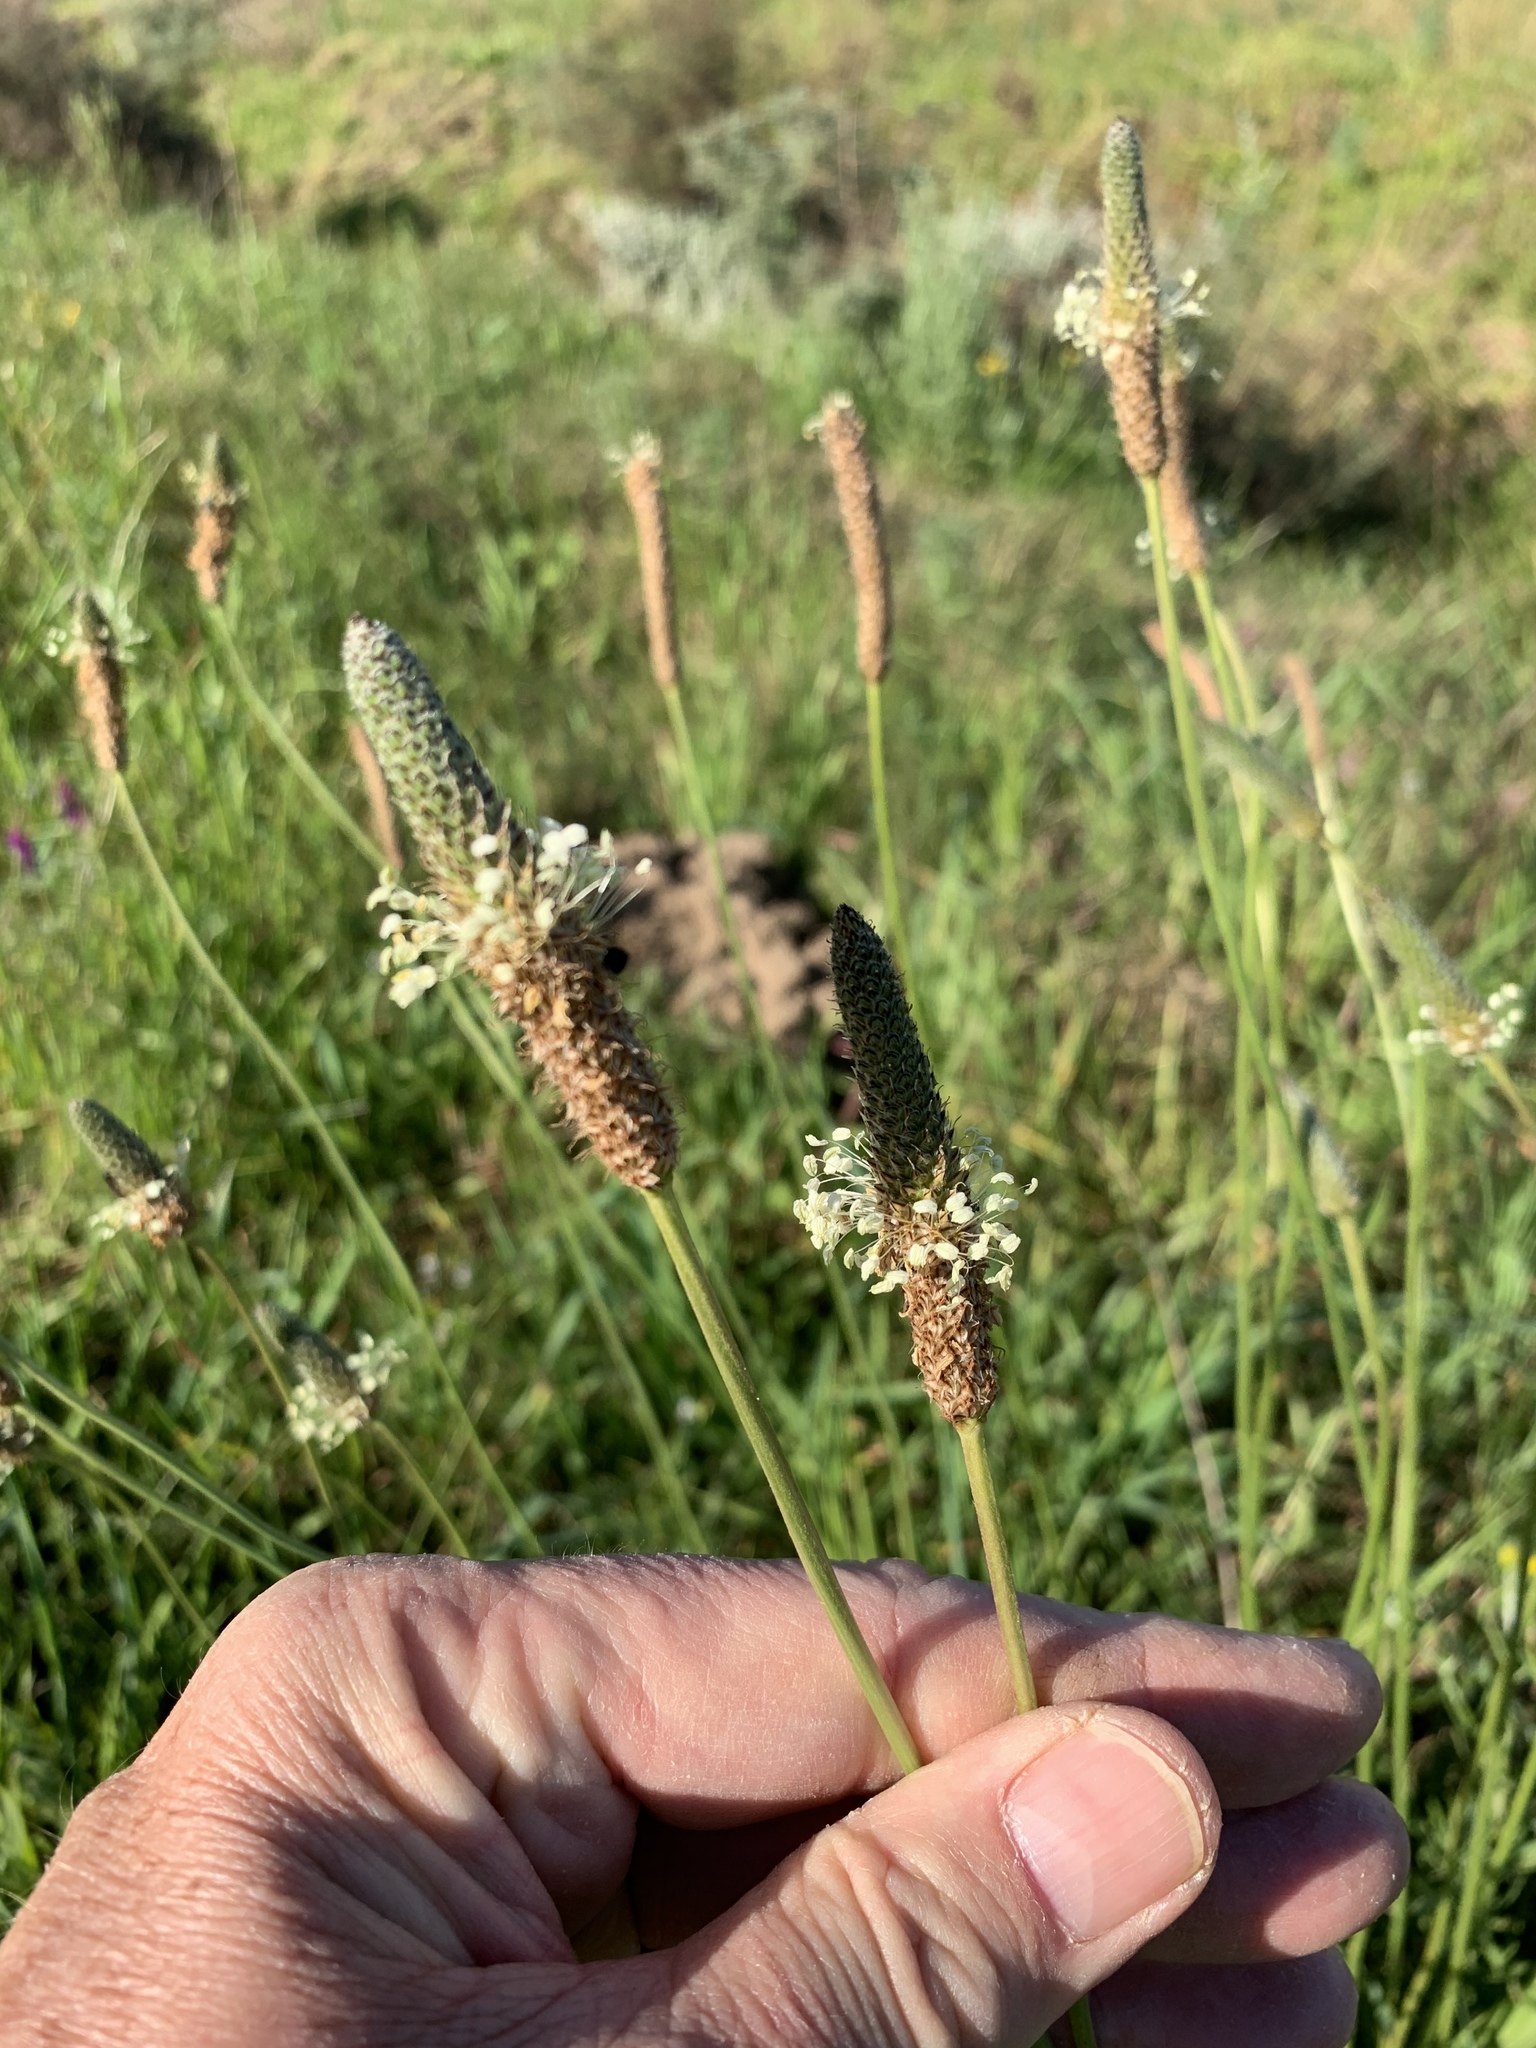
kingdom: Plantae
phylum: Tracheophyta
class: Magnoliopsida
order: Lamiales
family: Plantaginaceae
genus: Plantago
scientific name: Plantago lanceolata
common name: Ribwort plantain
